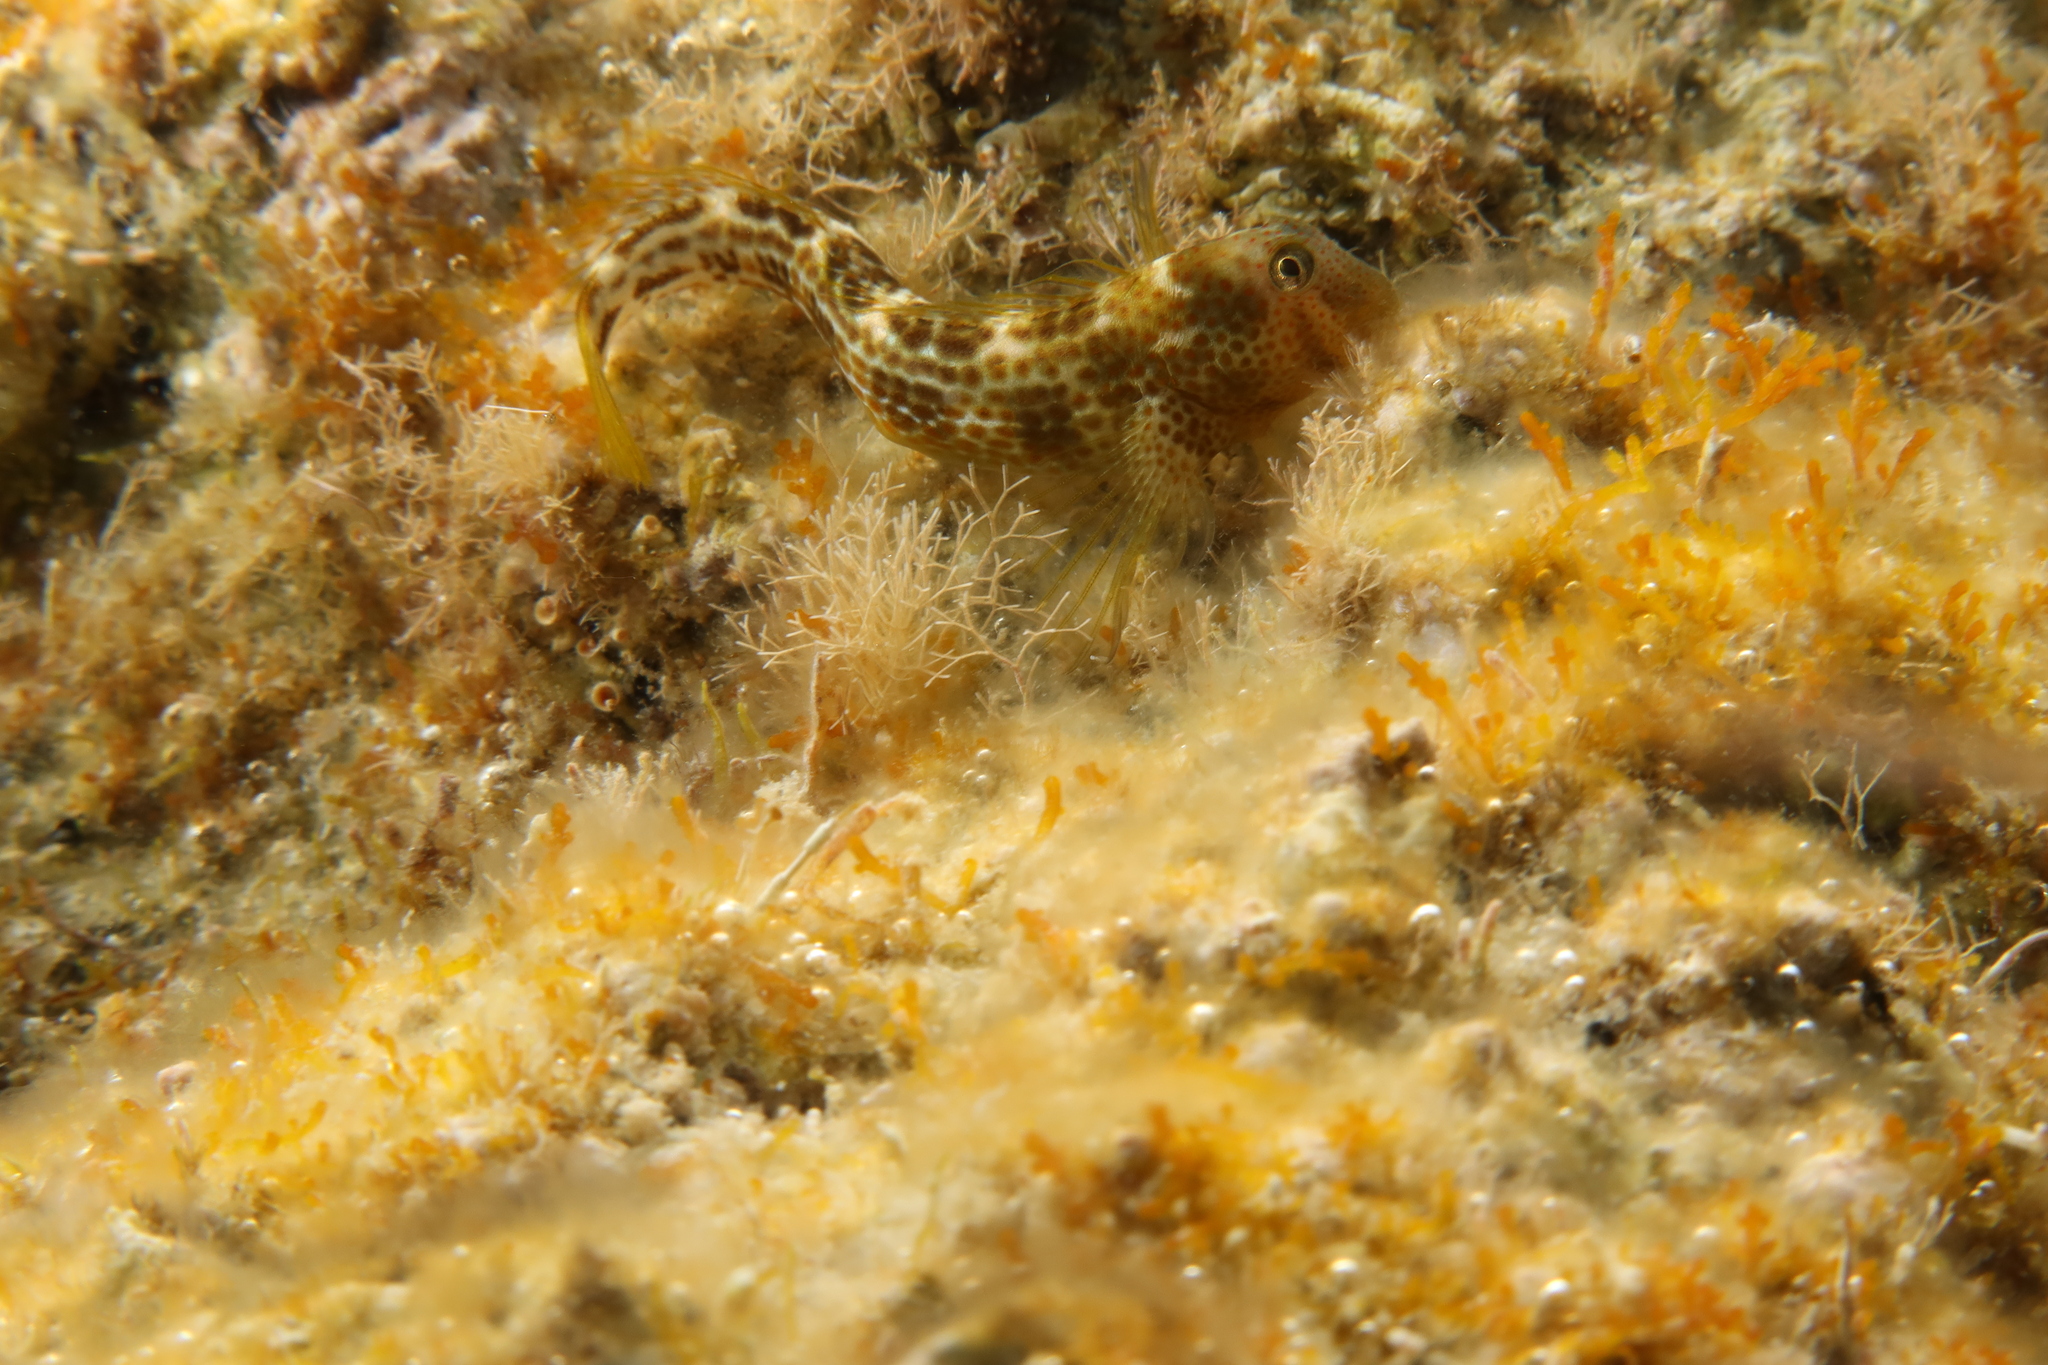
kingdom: Animalia
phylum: Chordata
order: Perciformes
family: Blenniidae
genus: Microlipophrys
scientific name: Microlipophrys canevae
